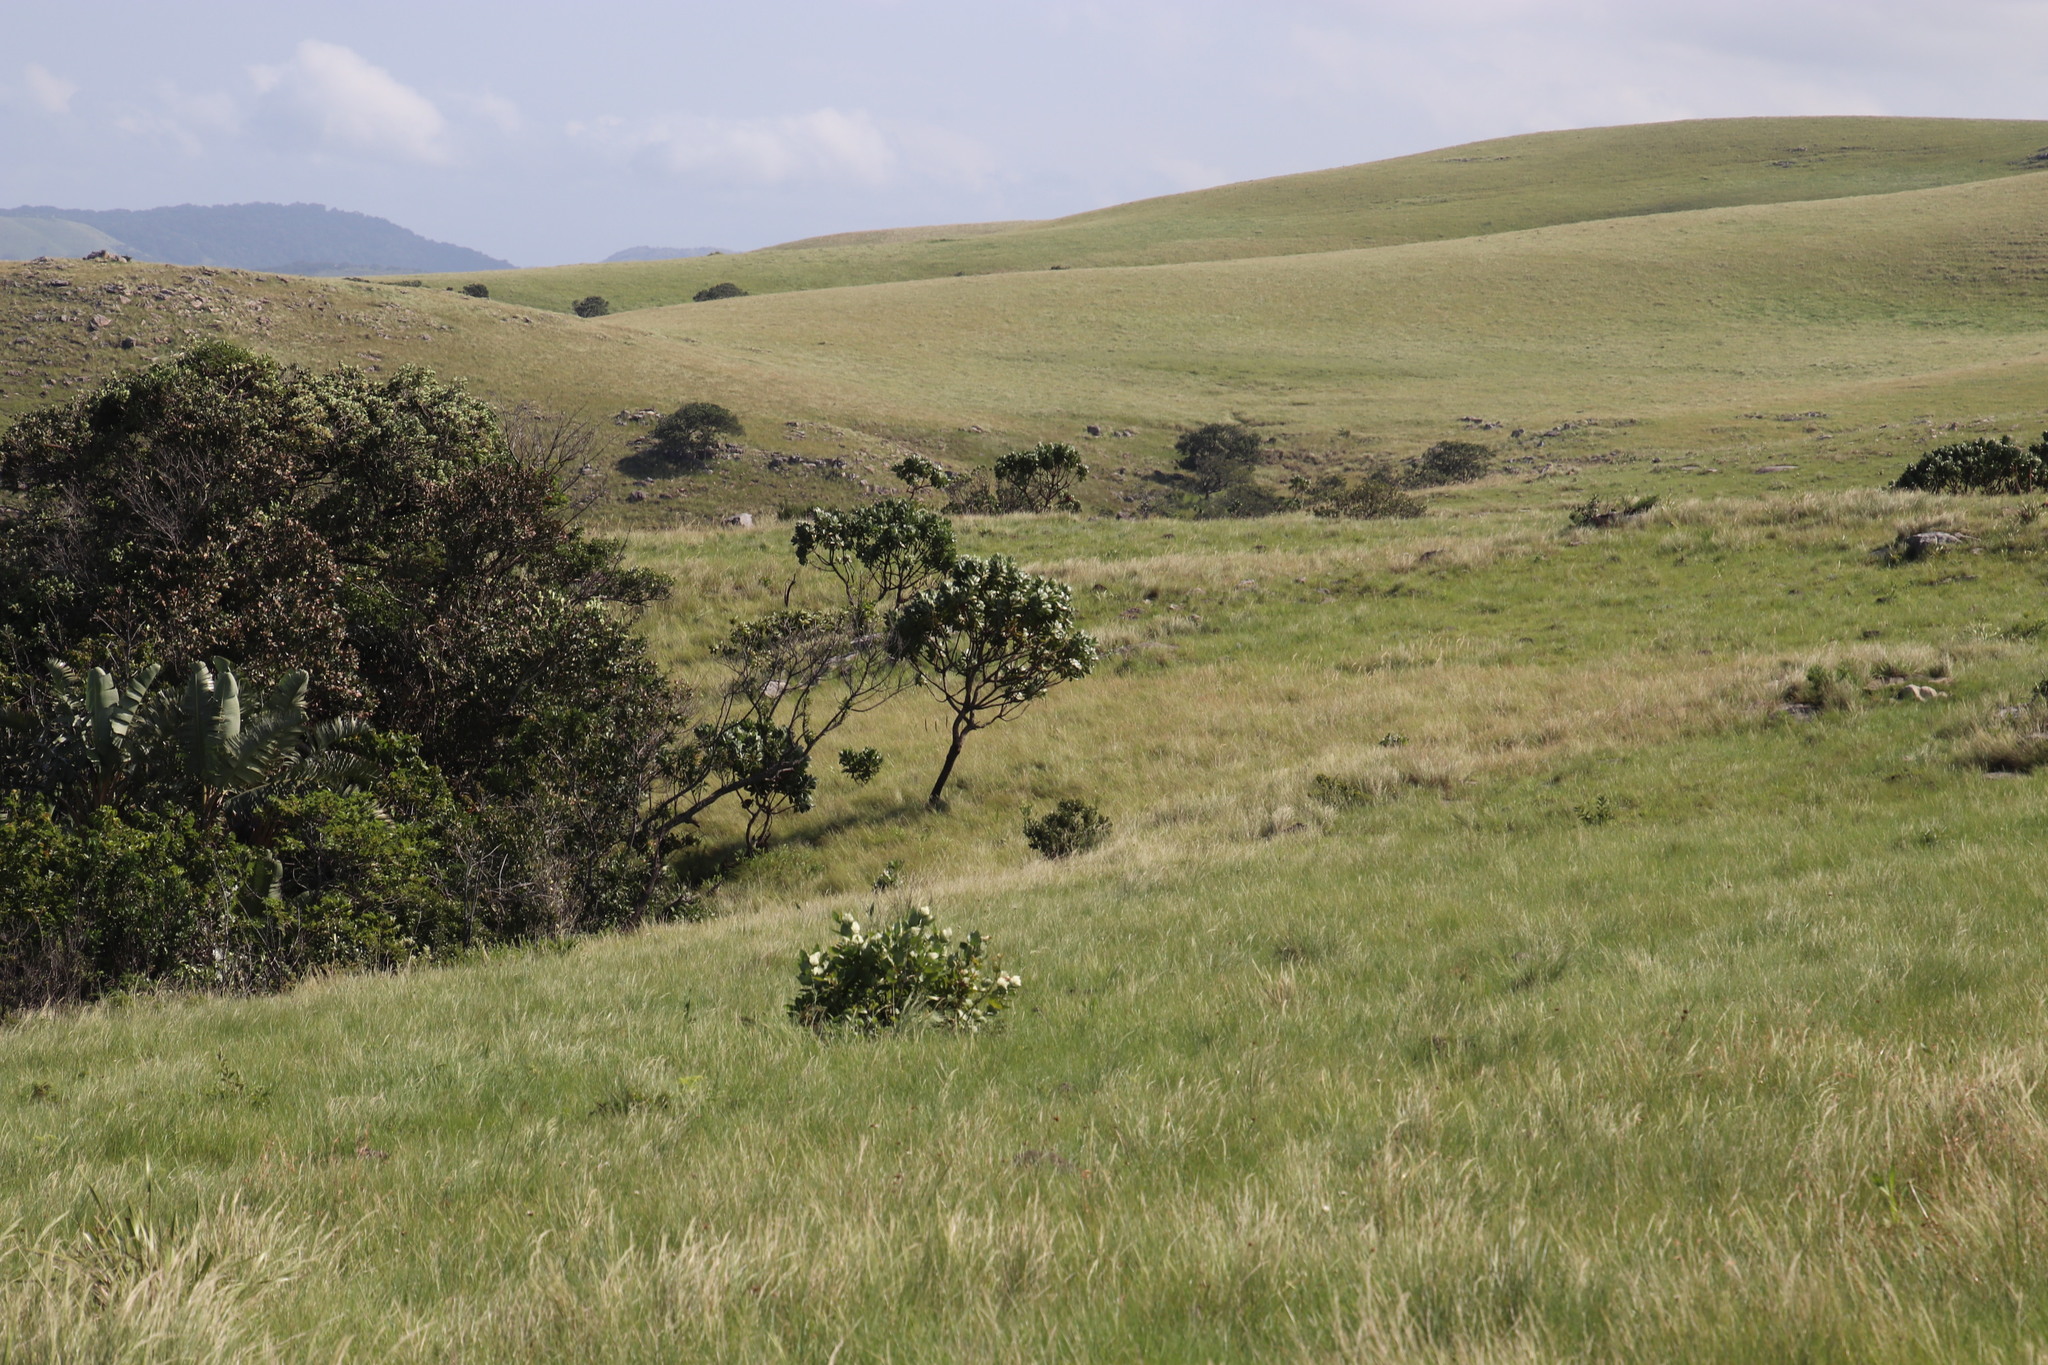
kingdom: Plantae
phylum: Tracheophyta
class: Magnoliopsida
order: Proteales
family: Proteaceae
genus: Protea
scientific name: Protea roupelliae
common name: Silver sugarbush
